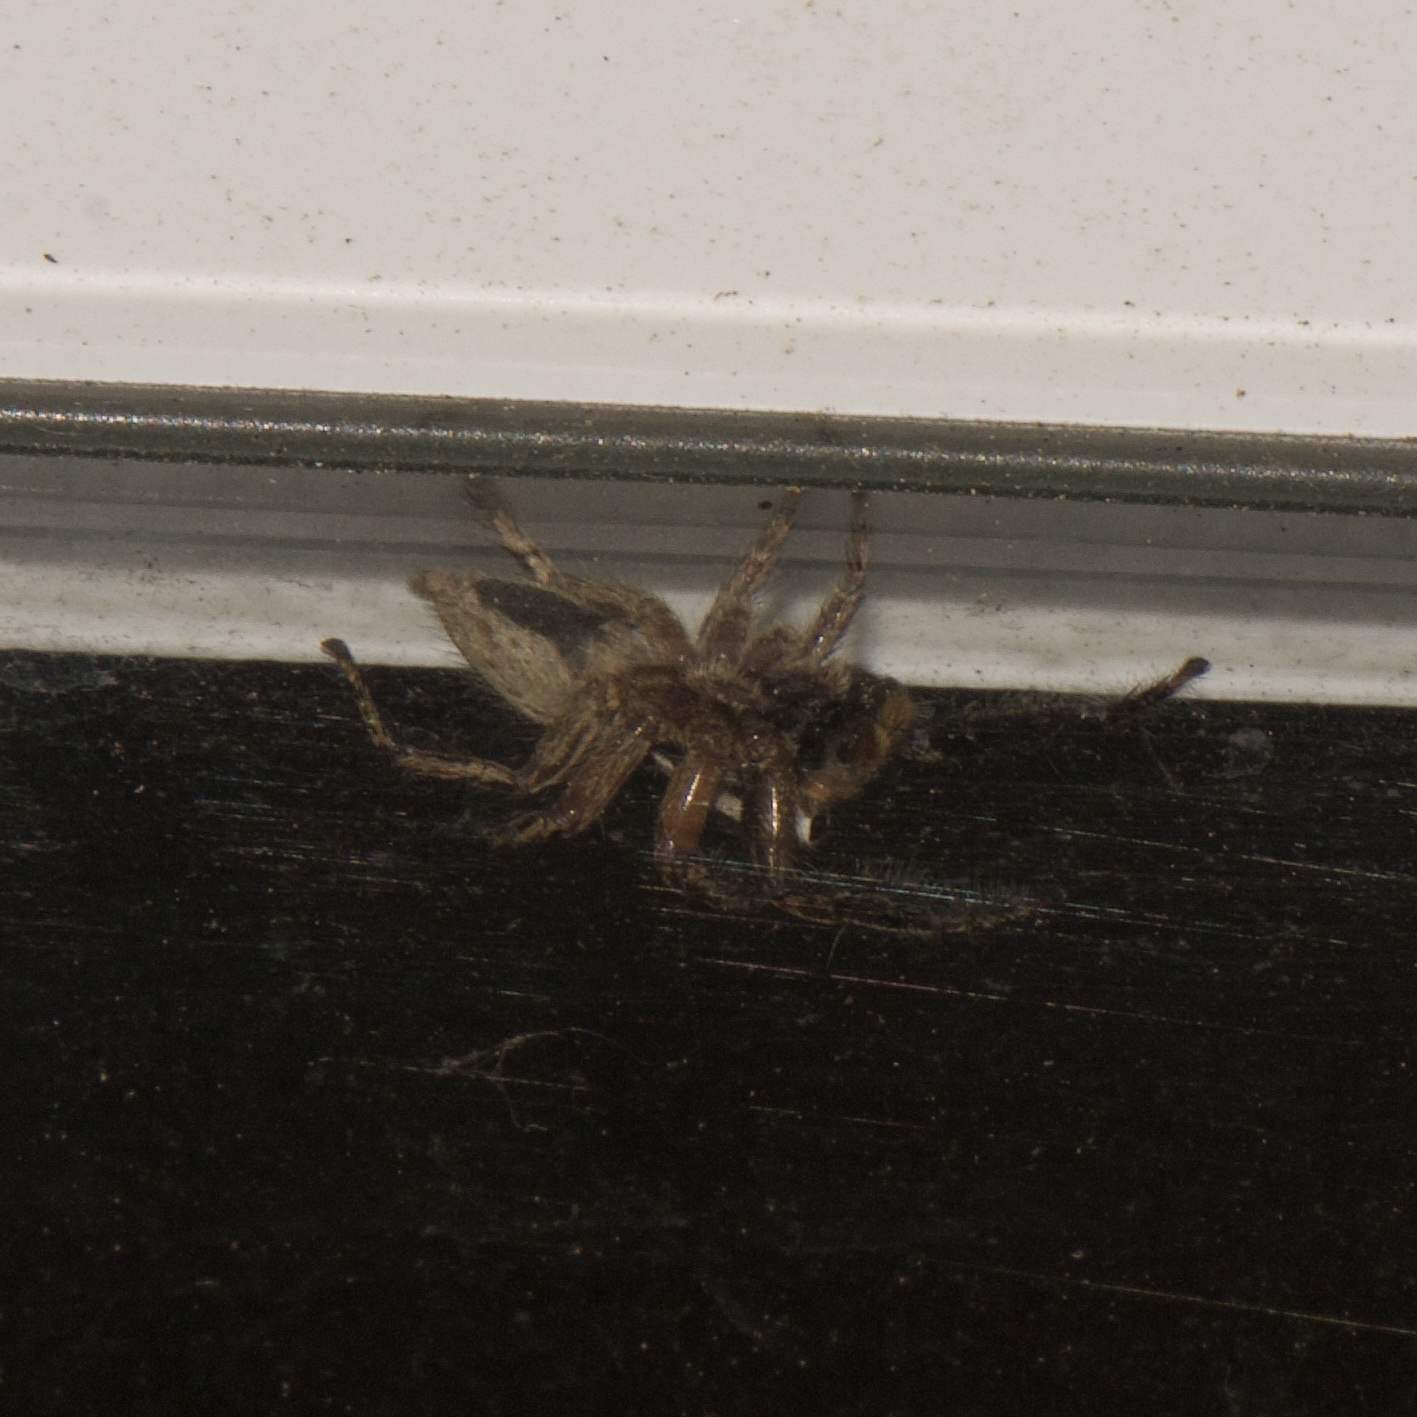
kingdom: Animalia
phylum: Arthropoda
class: Arachnida
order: Araneae
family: Salticidae
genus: Plexippus
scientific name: Plexippus paykulli
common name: Pantropical jumper
